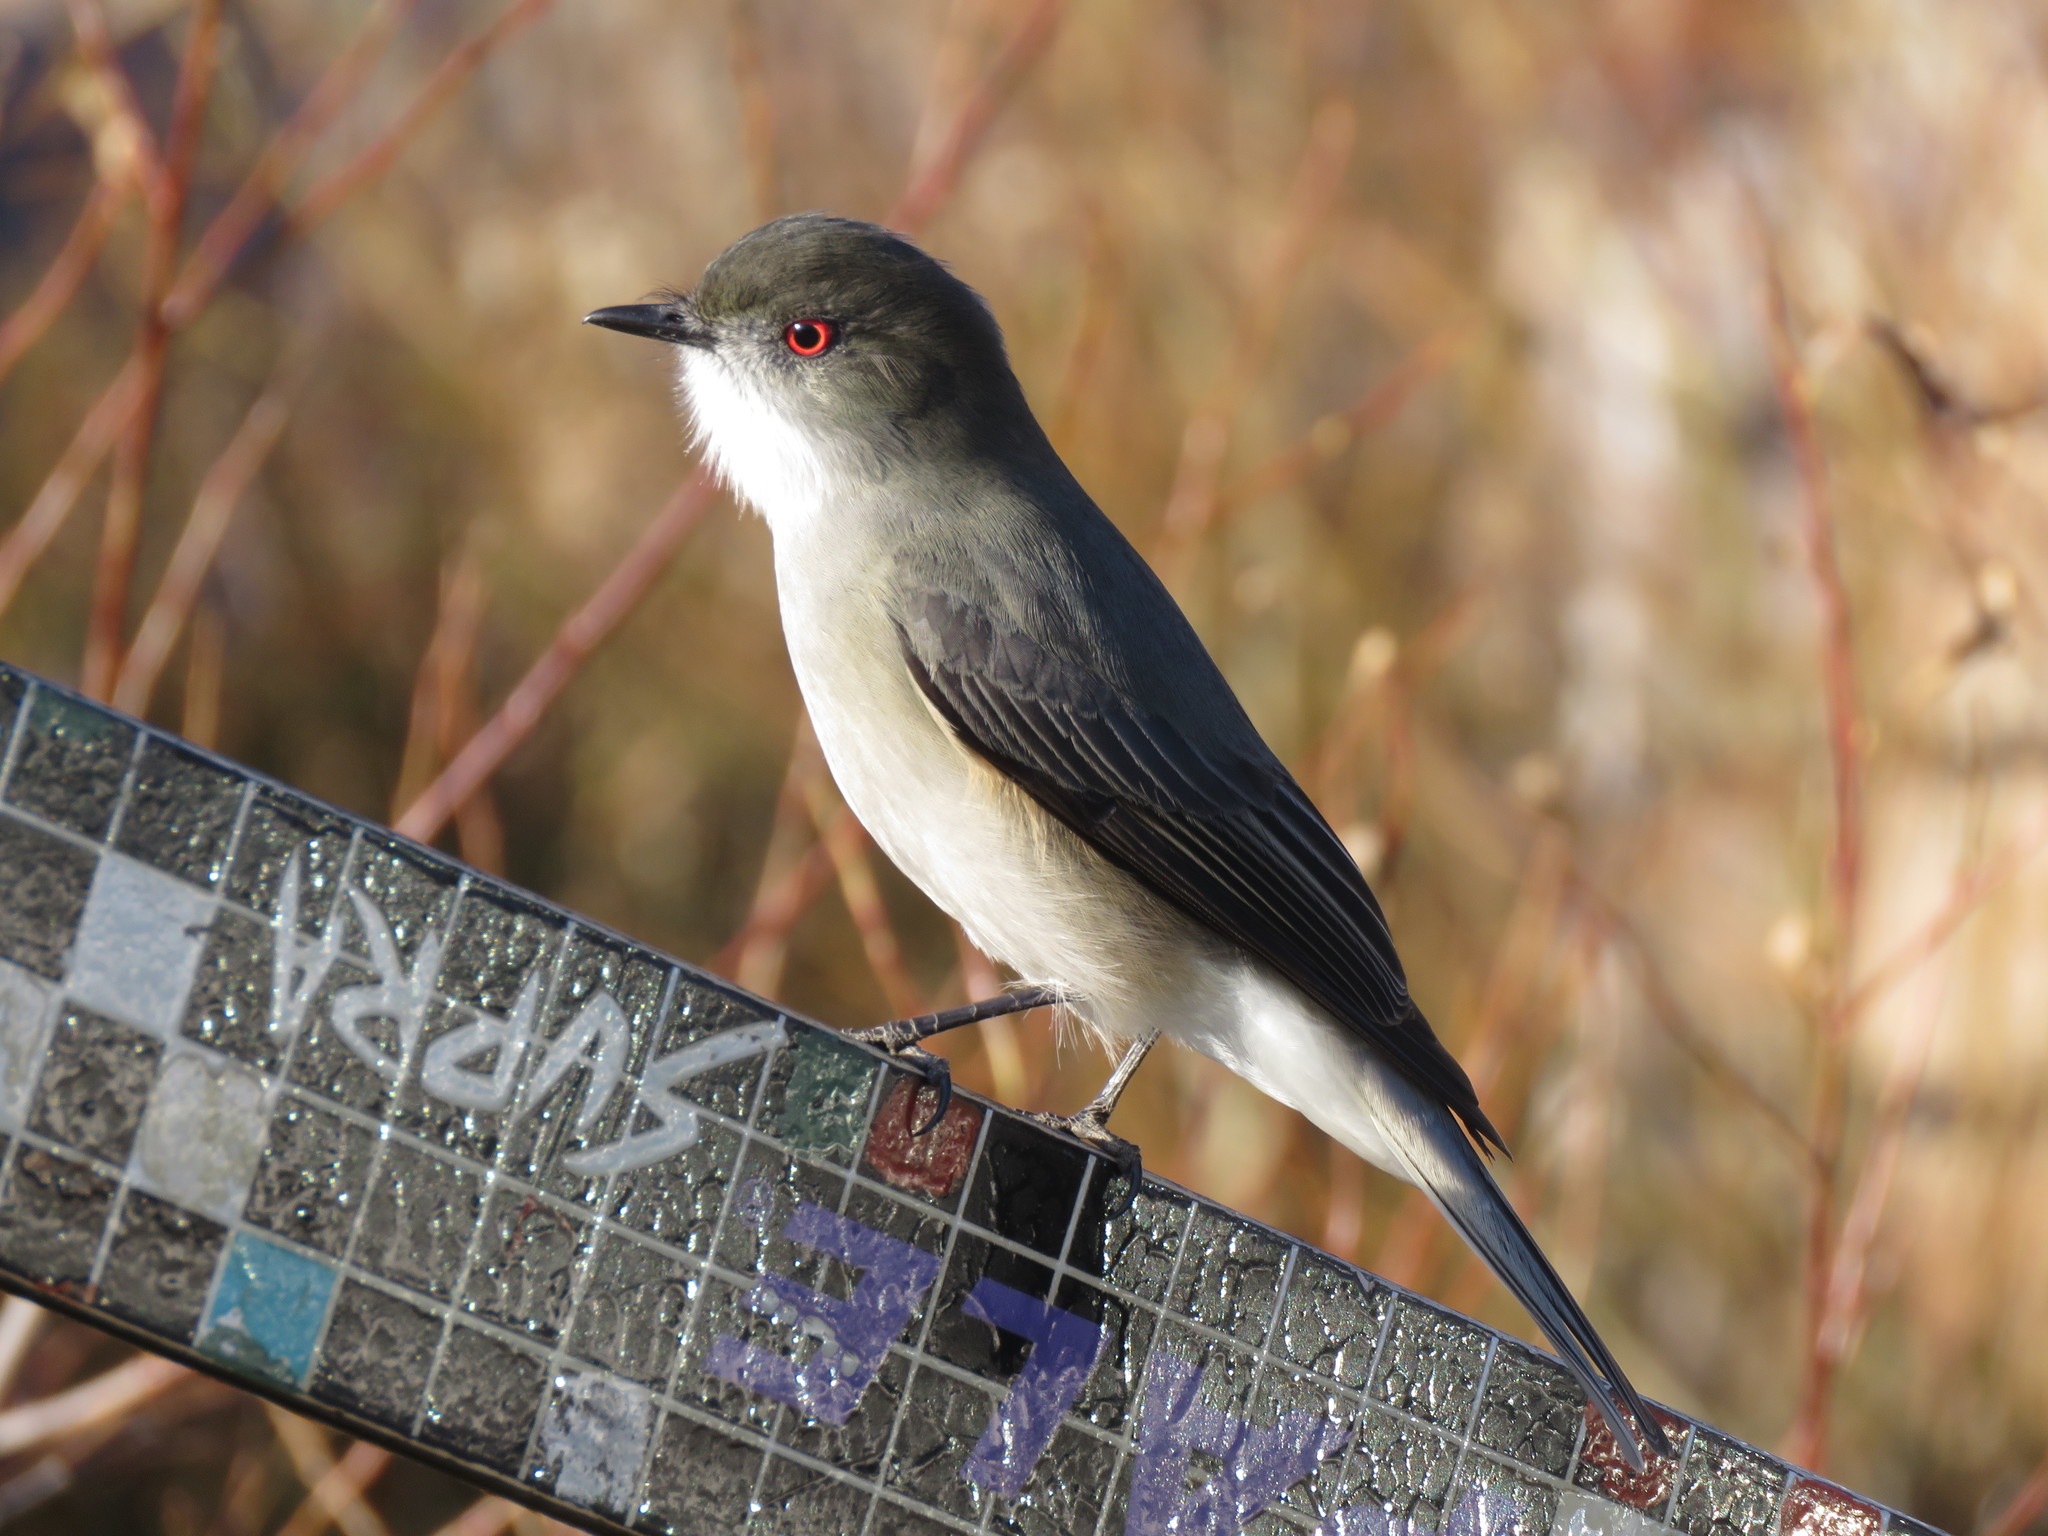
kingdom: Animalia
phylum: Chordata
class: Aves
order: Passeriformes
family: Tyrannidae
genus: Xolmis
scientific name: Xolmis pyrope
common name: Fire-eyed diucon
